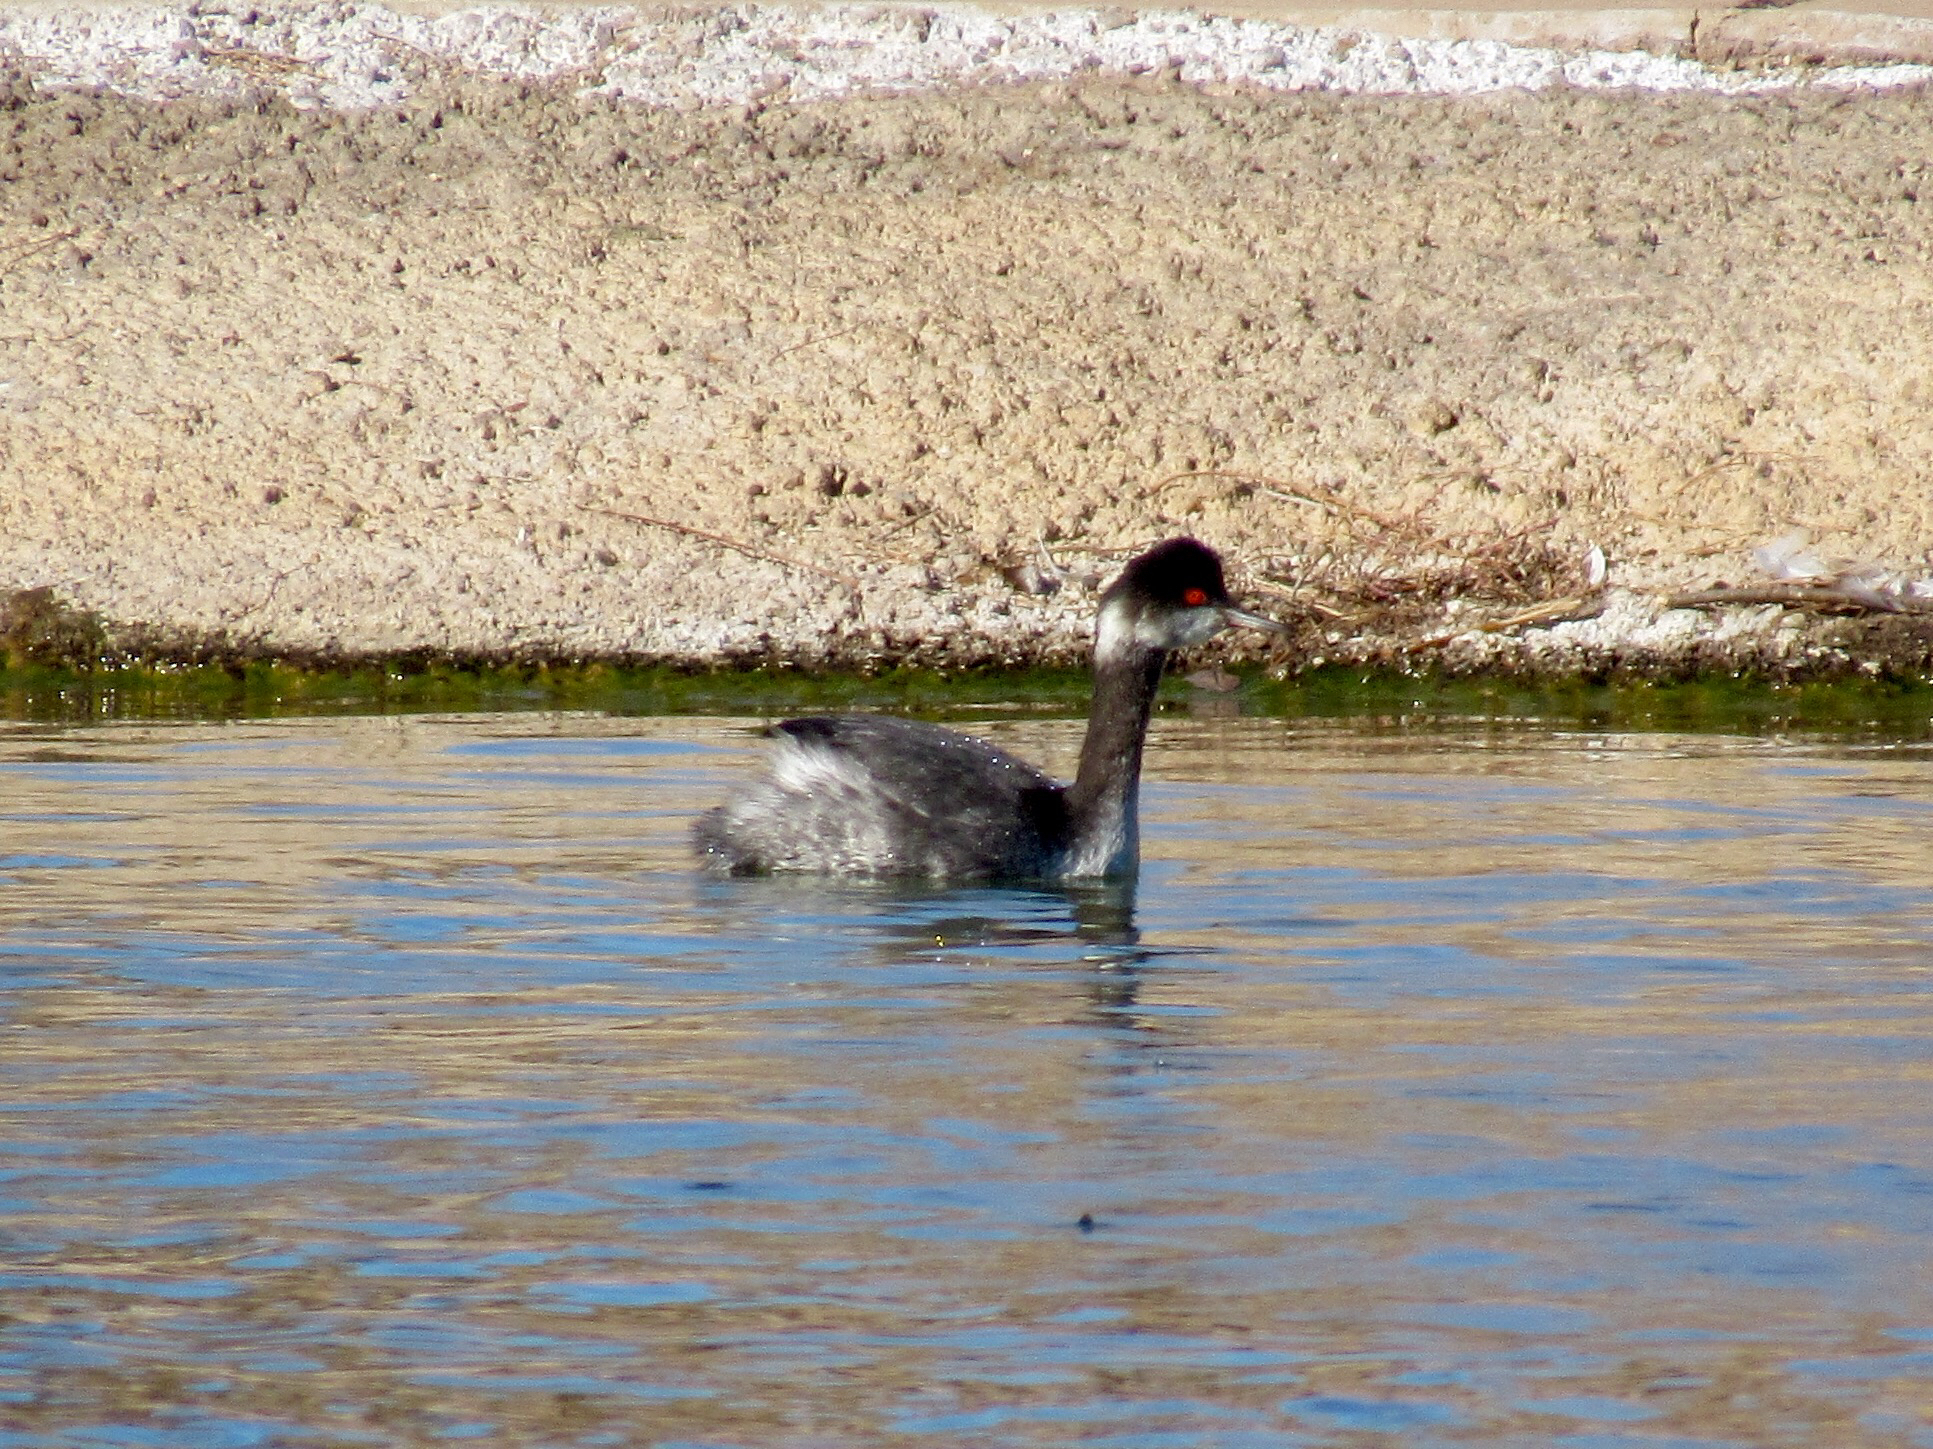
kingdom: Animalia
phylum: Chordata
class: Aves
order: Podicipediformes
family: Podicipedidae
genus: Podiceps
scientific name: Podiceps nigricollis
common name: Black-necked grebe
